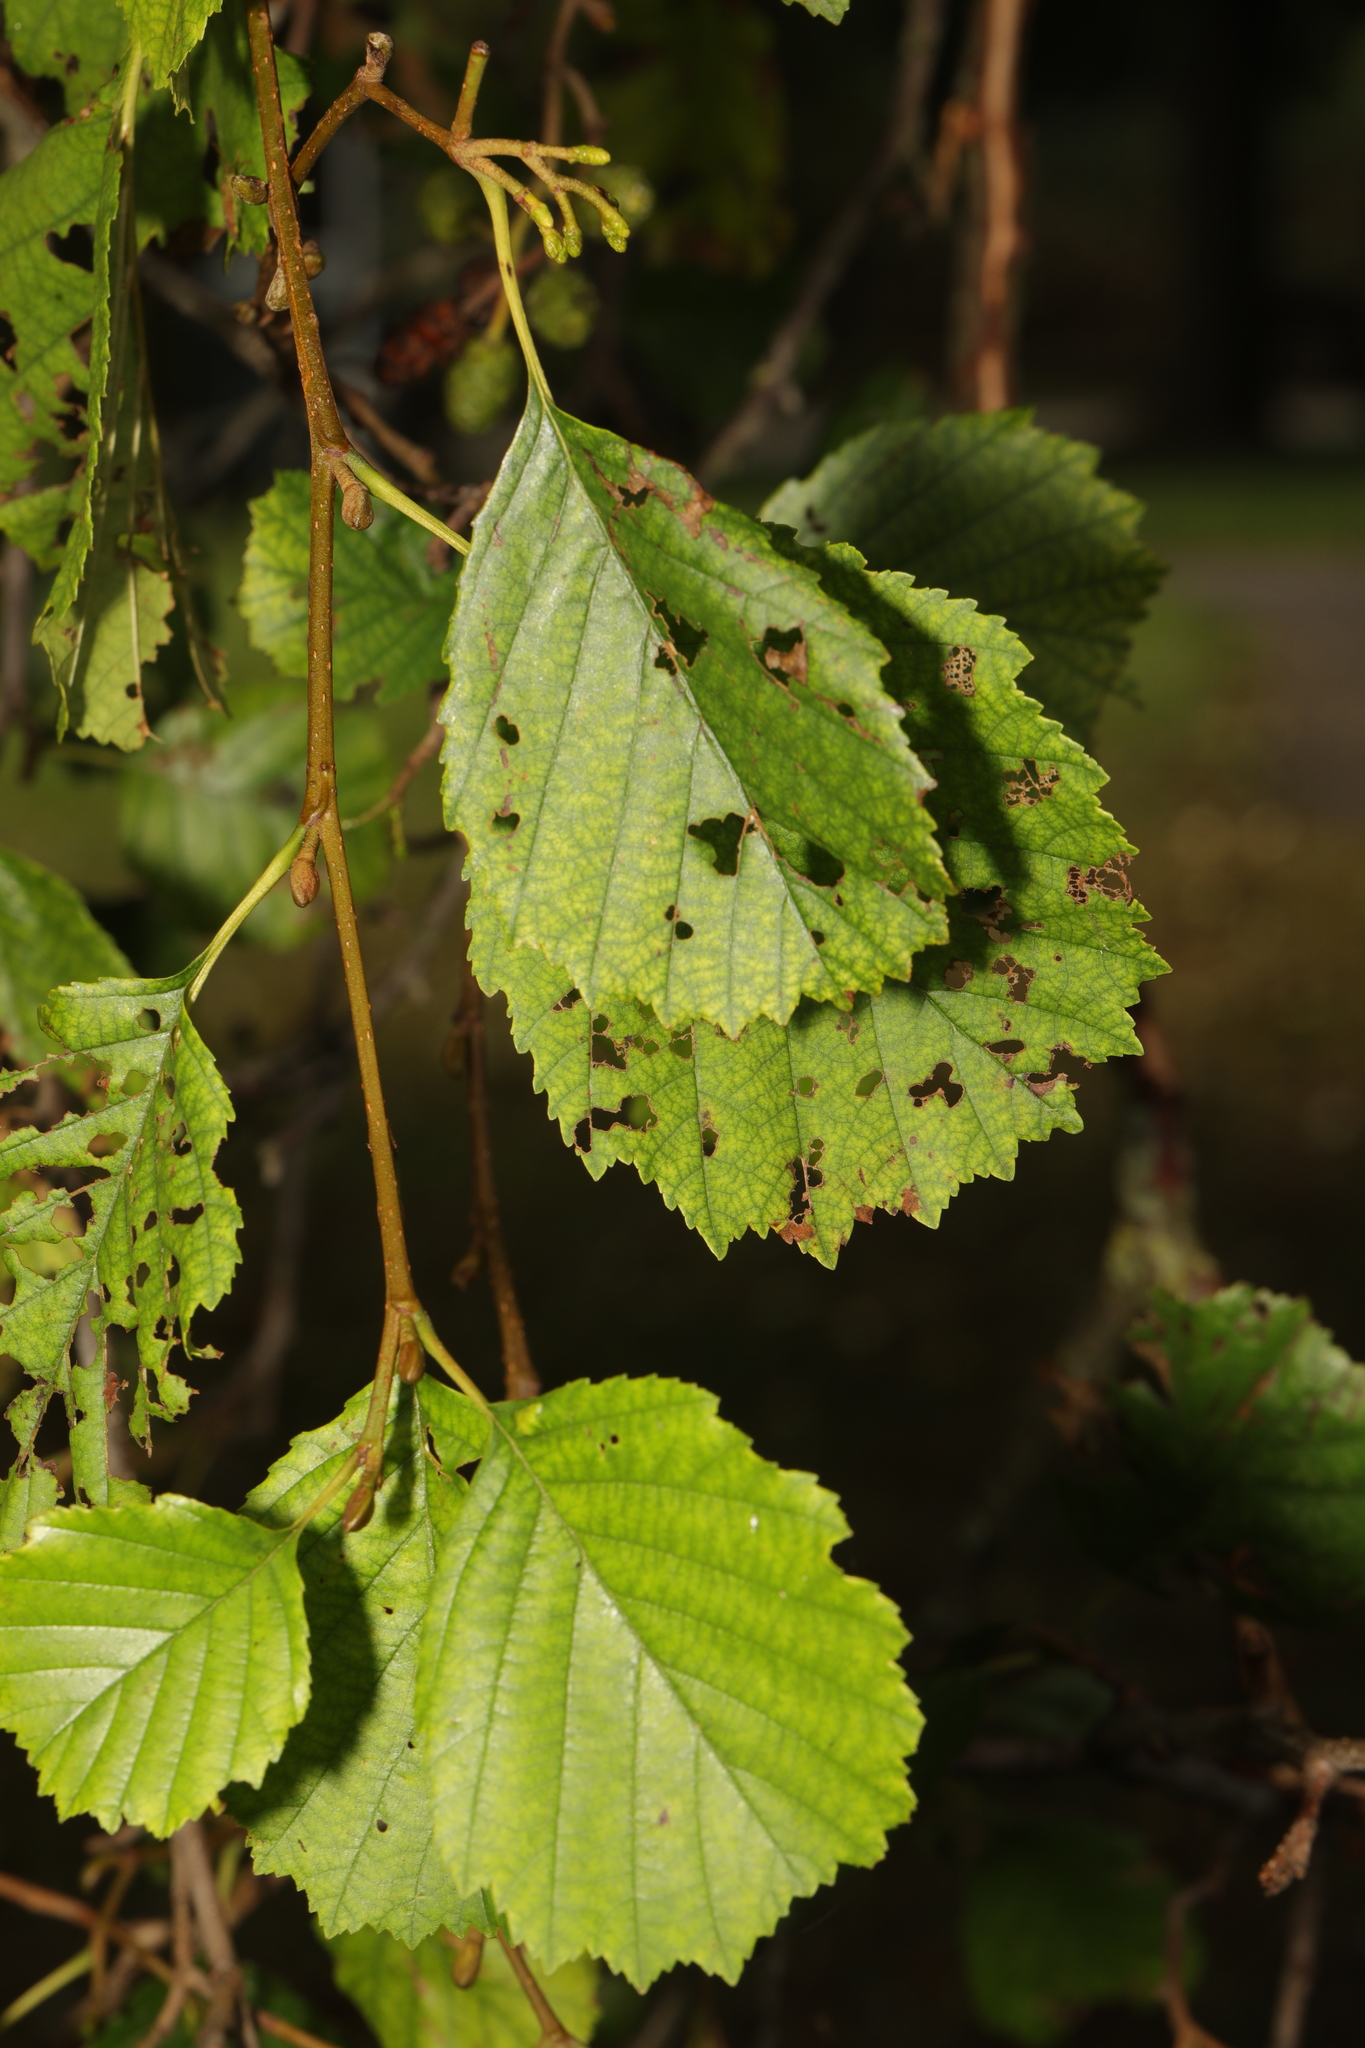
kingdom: Plantae
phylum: Tracheophyta
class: Magnoliopsida
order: Fagales
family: Betulaceae
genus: Alnus
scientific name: Alnus glutinosa
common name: Black alder
